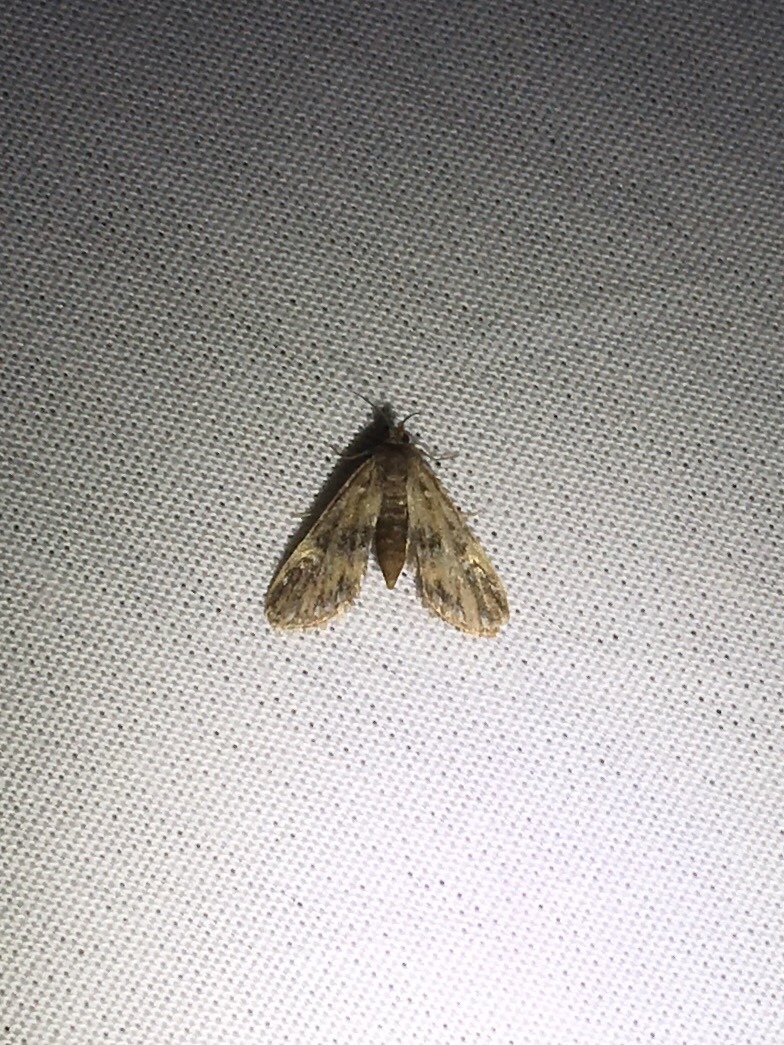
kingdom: Animalia
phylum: Arthropoda
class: Insecta
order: Lepidoptera
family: Crambidae
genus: Elophila
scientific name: Elophila obliteralis
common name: Waterlily leafcutter moth
